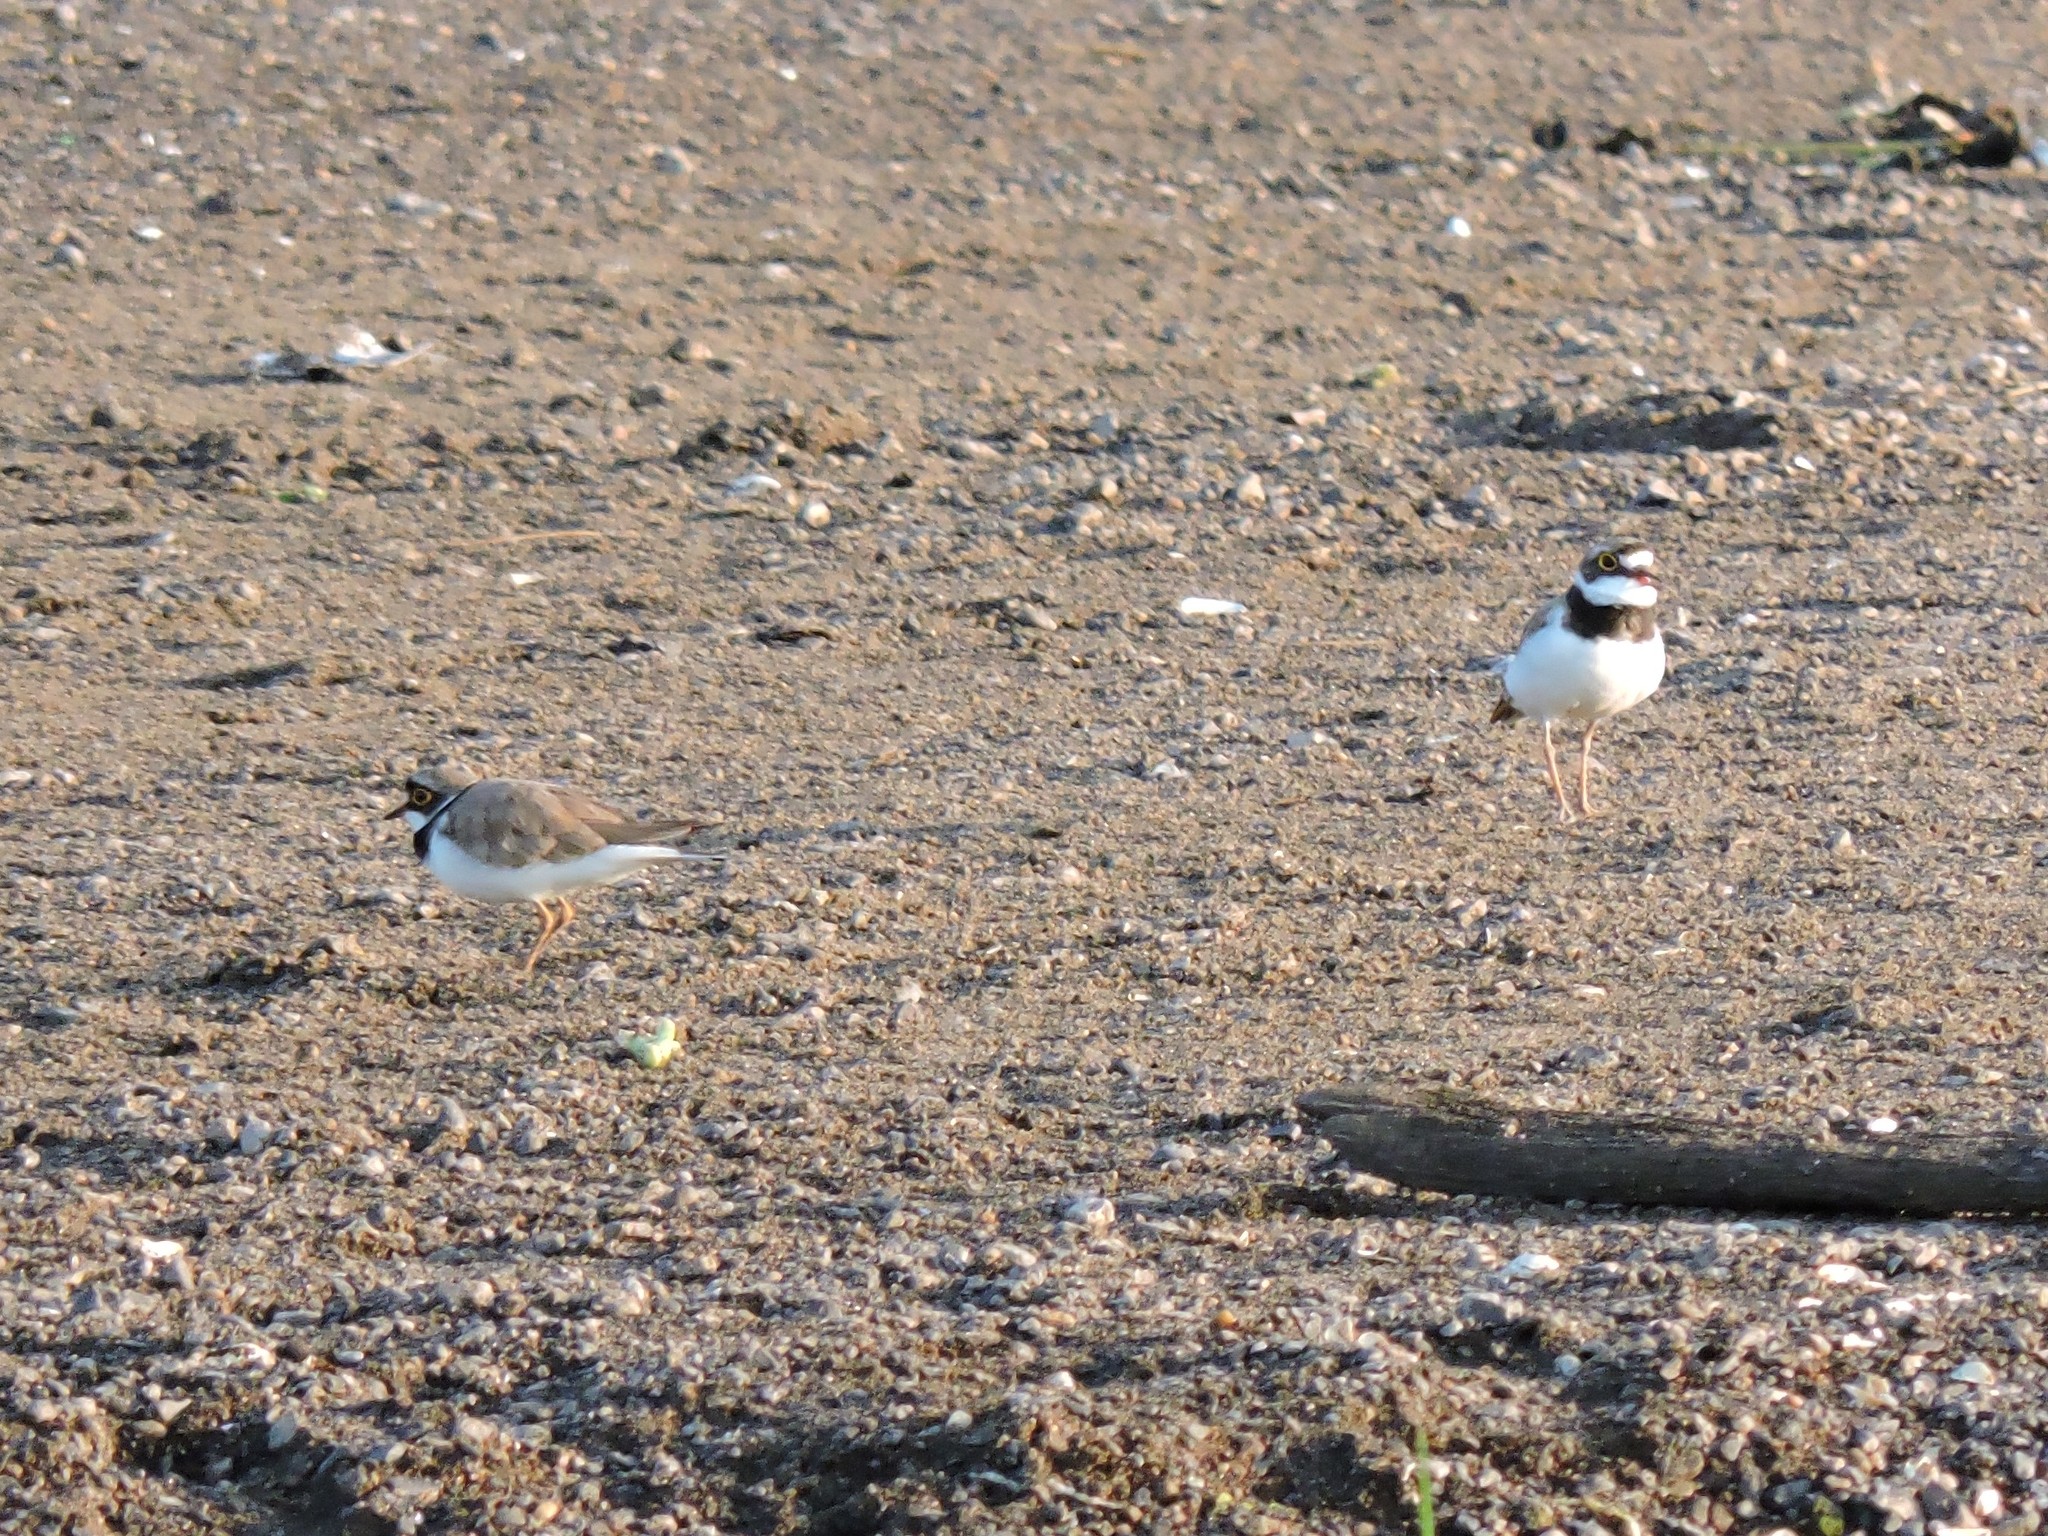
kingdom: Animalia
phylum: Chordata
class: Aves
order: Charadriiformes
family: Charadriidae
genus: Charadrius
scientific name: Charadrius dubius
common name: Little ringed plover
